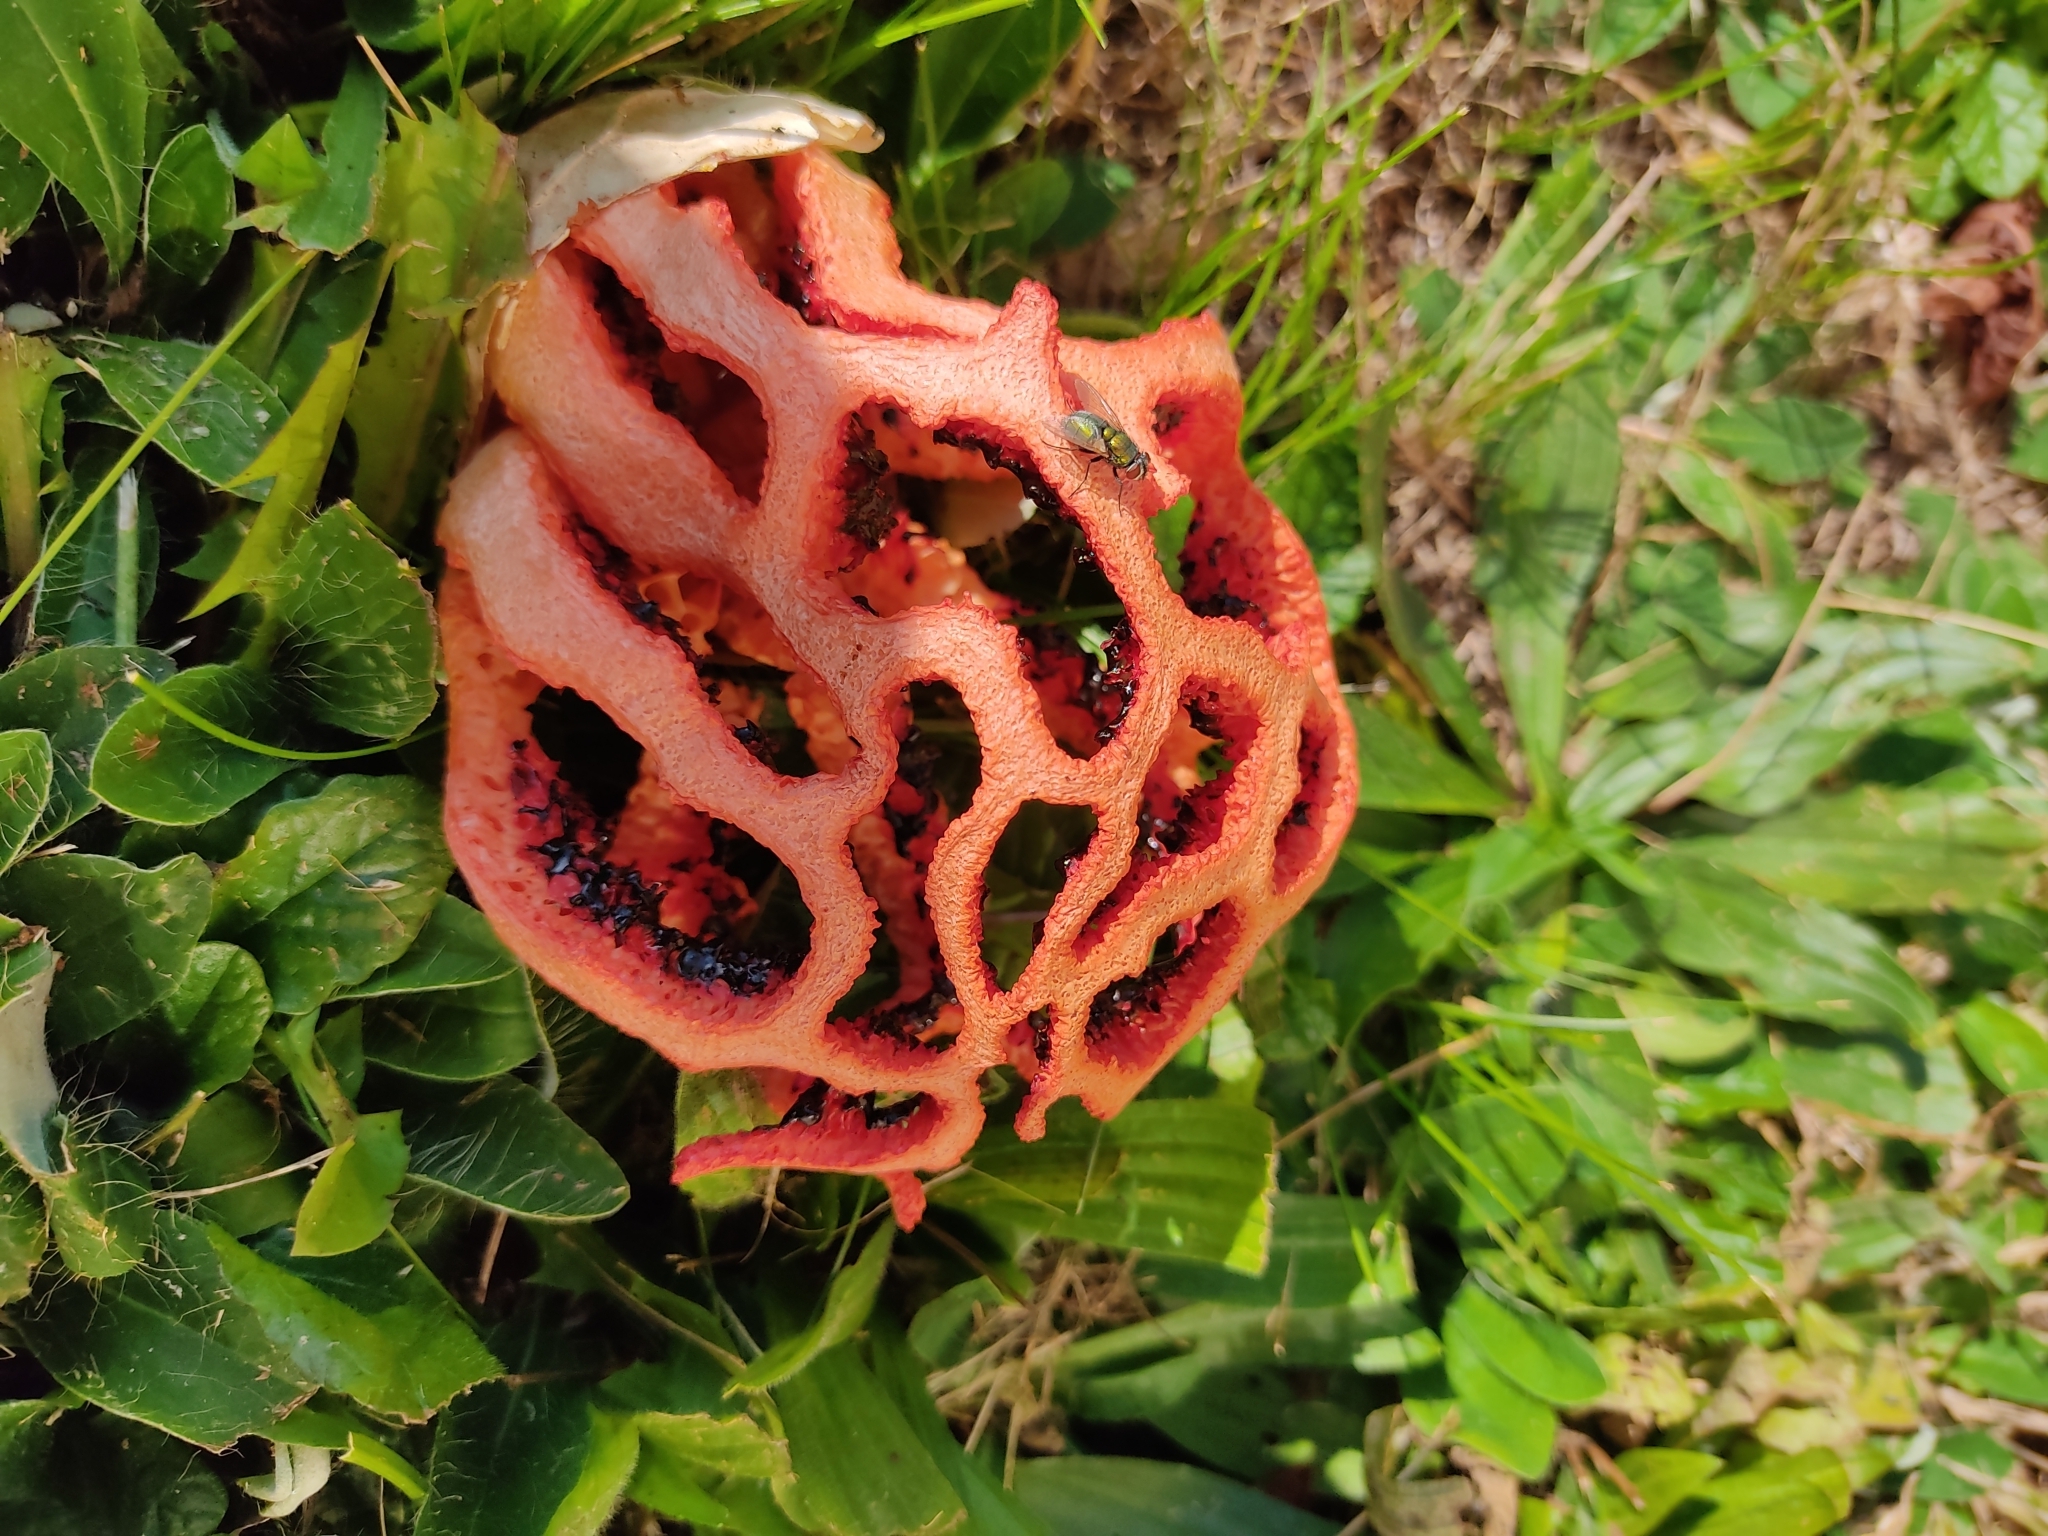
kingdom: Fungi
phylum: Basidiomycota
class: Agaricomycetes
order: Phallales
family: Phallaceae
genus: Clathrus
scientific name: Clathrus ruber
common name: Red cage
